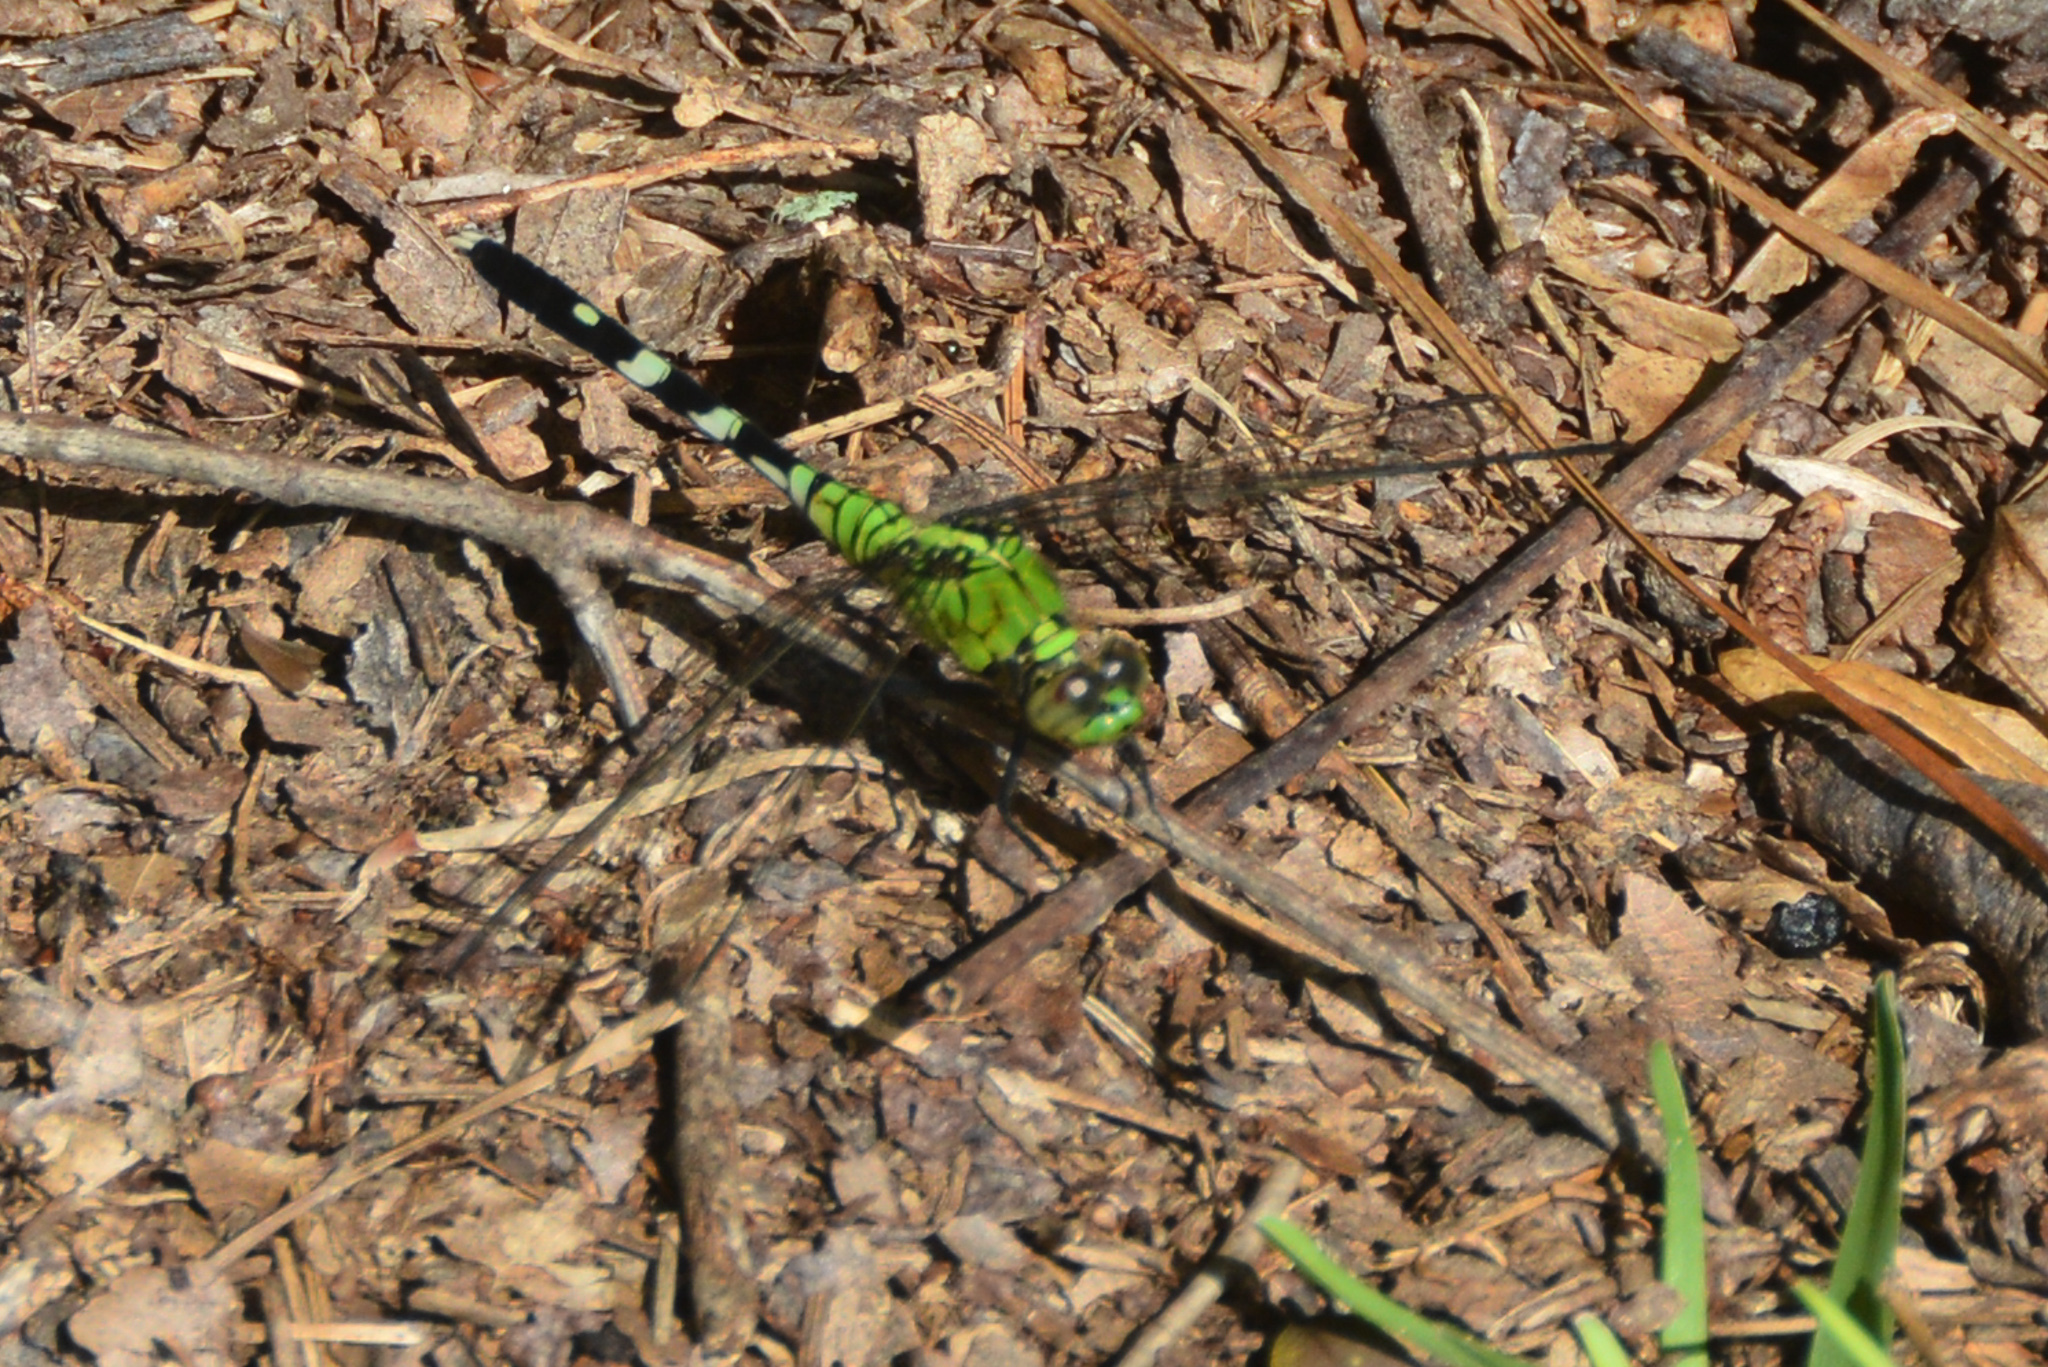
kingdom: Animalia
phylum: Arthropoda
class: Insecta
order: Odonata
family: Libellulidae
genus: Erythemis
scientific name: Erythemis simplicicollis
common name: Eastern pondhawk
